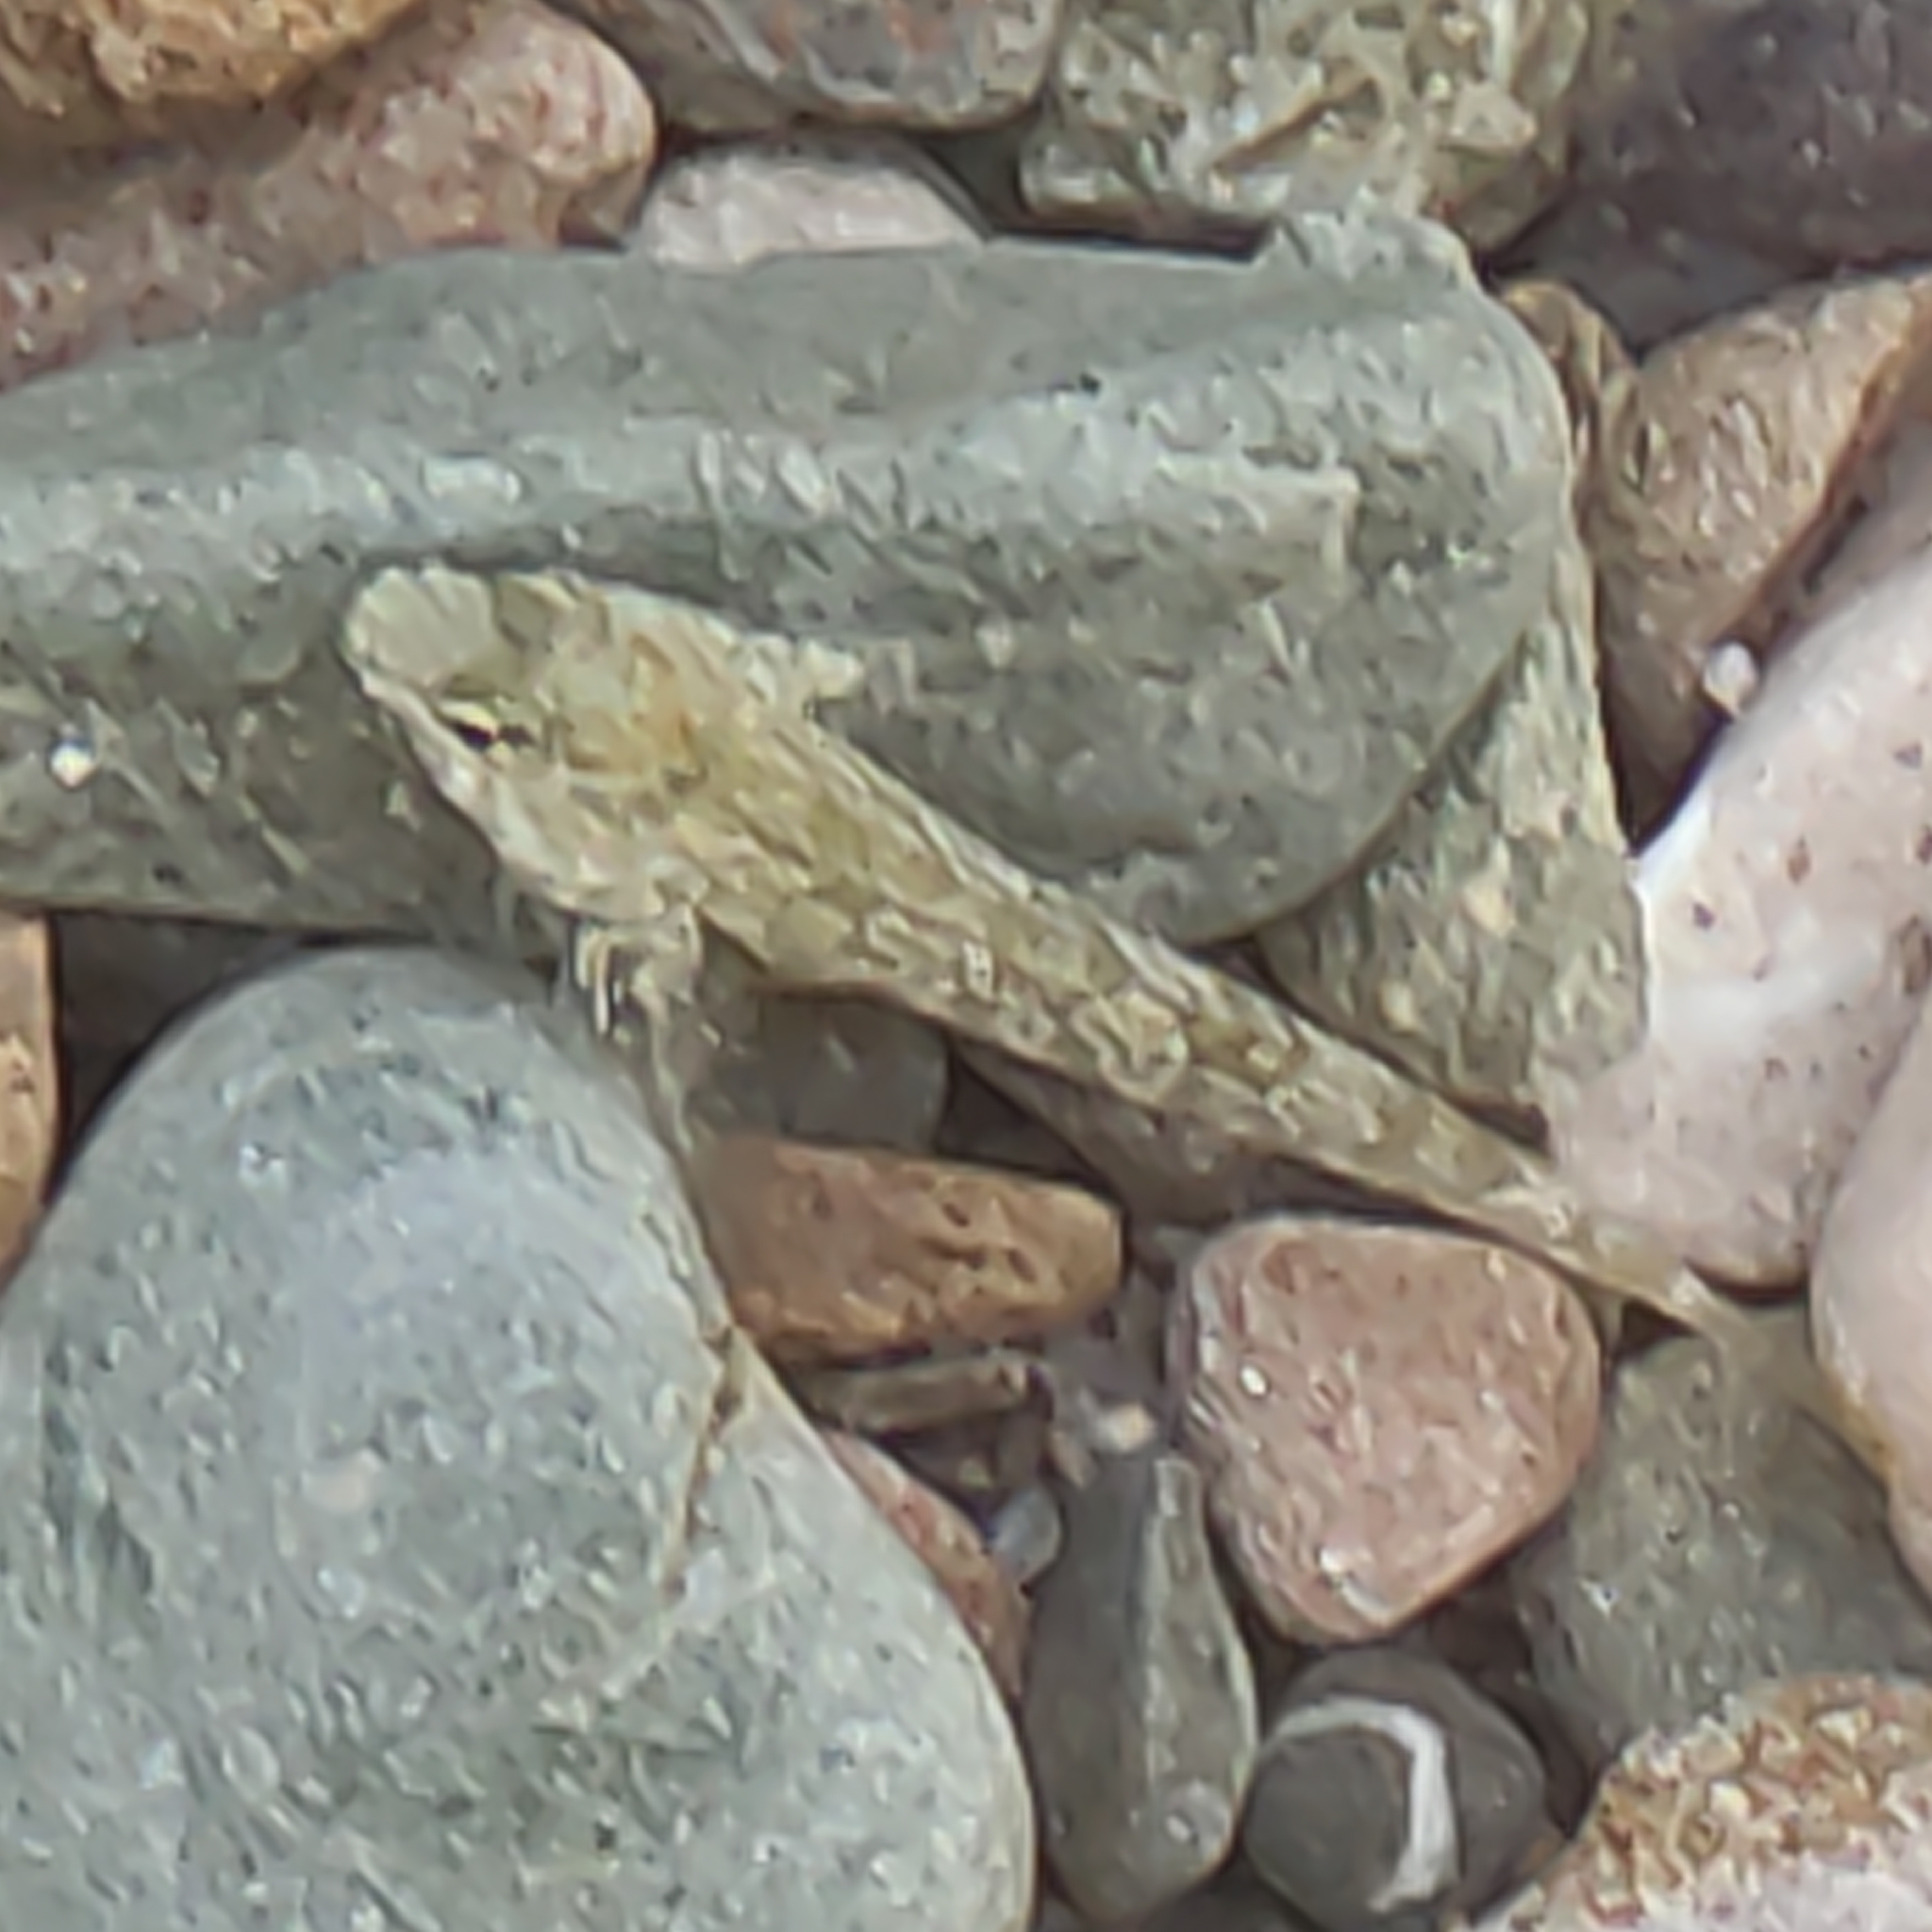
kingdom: Animalia
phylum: Chordata
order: Perciformes
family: Tripterygiidae
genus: Bellapiscis
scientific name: Bellapiscis medius
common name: Twister
